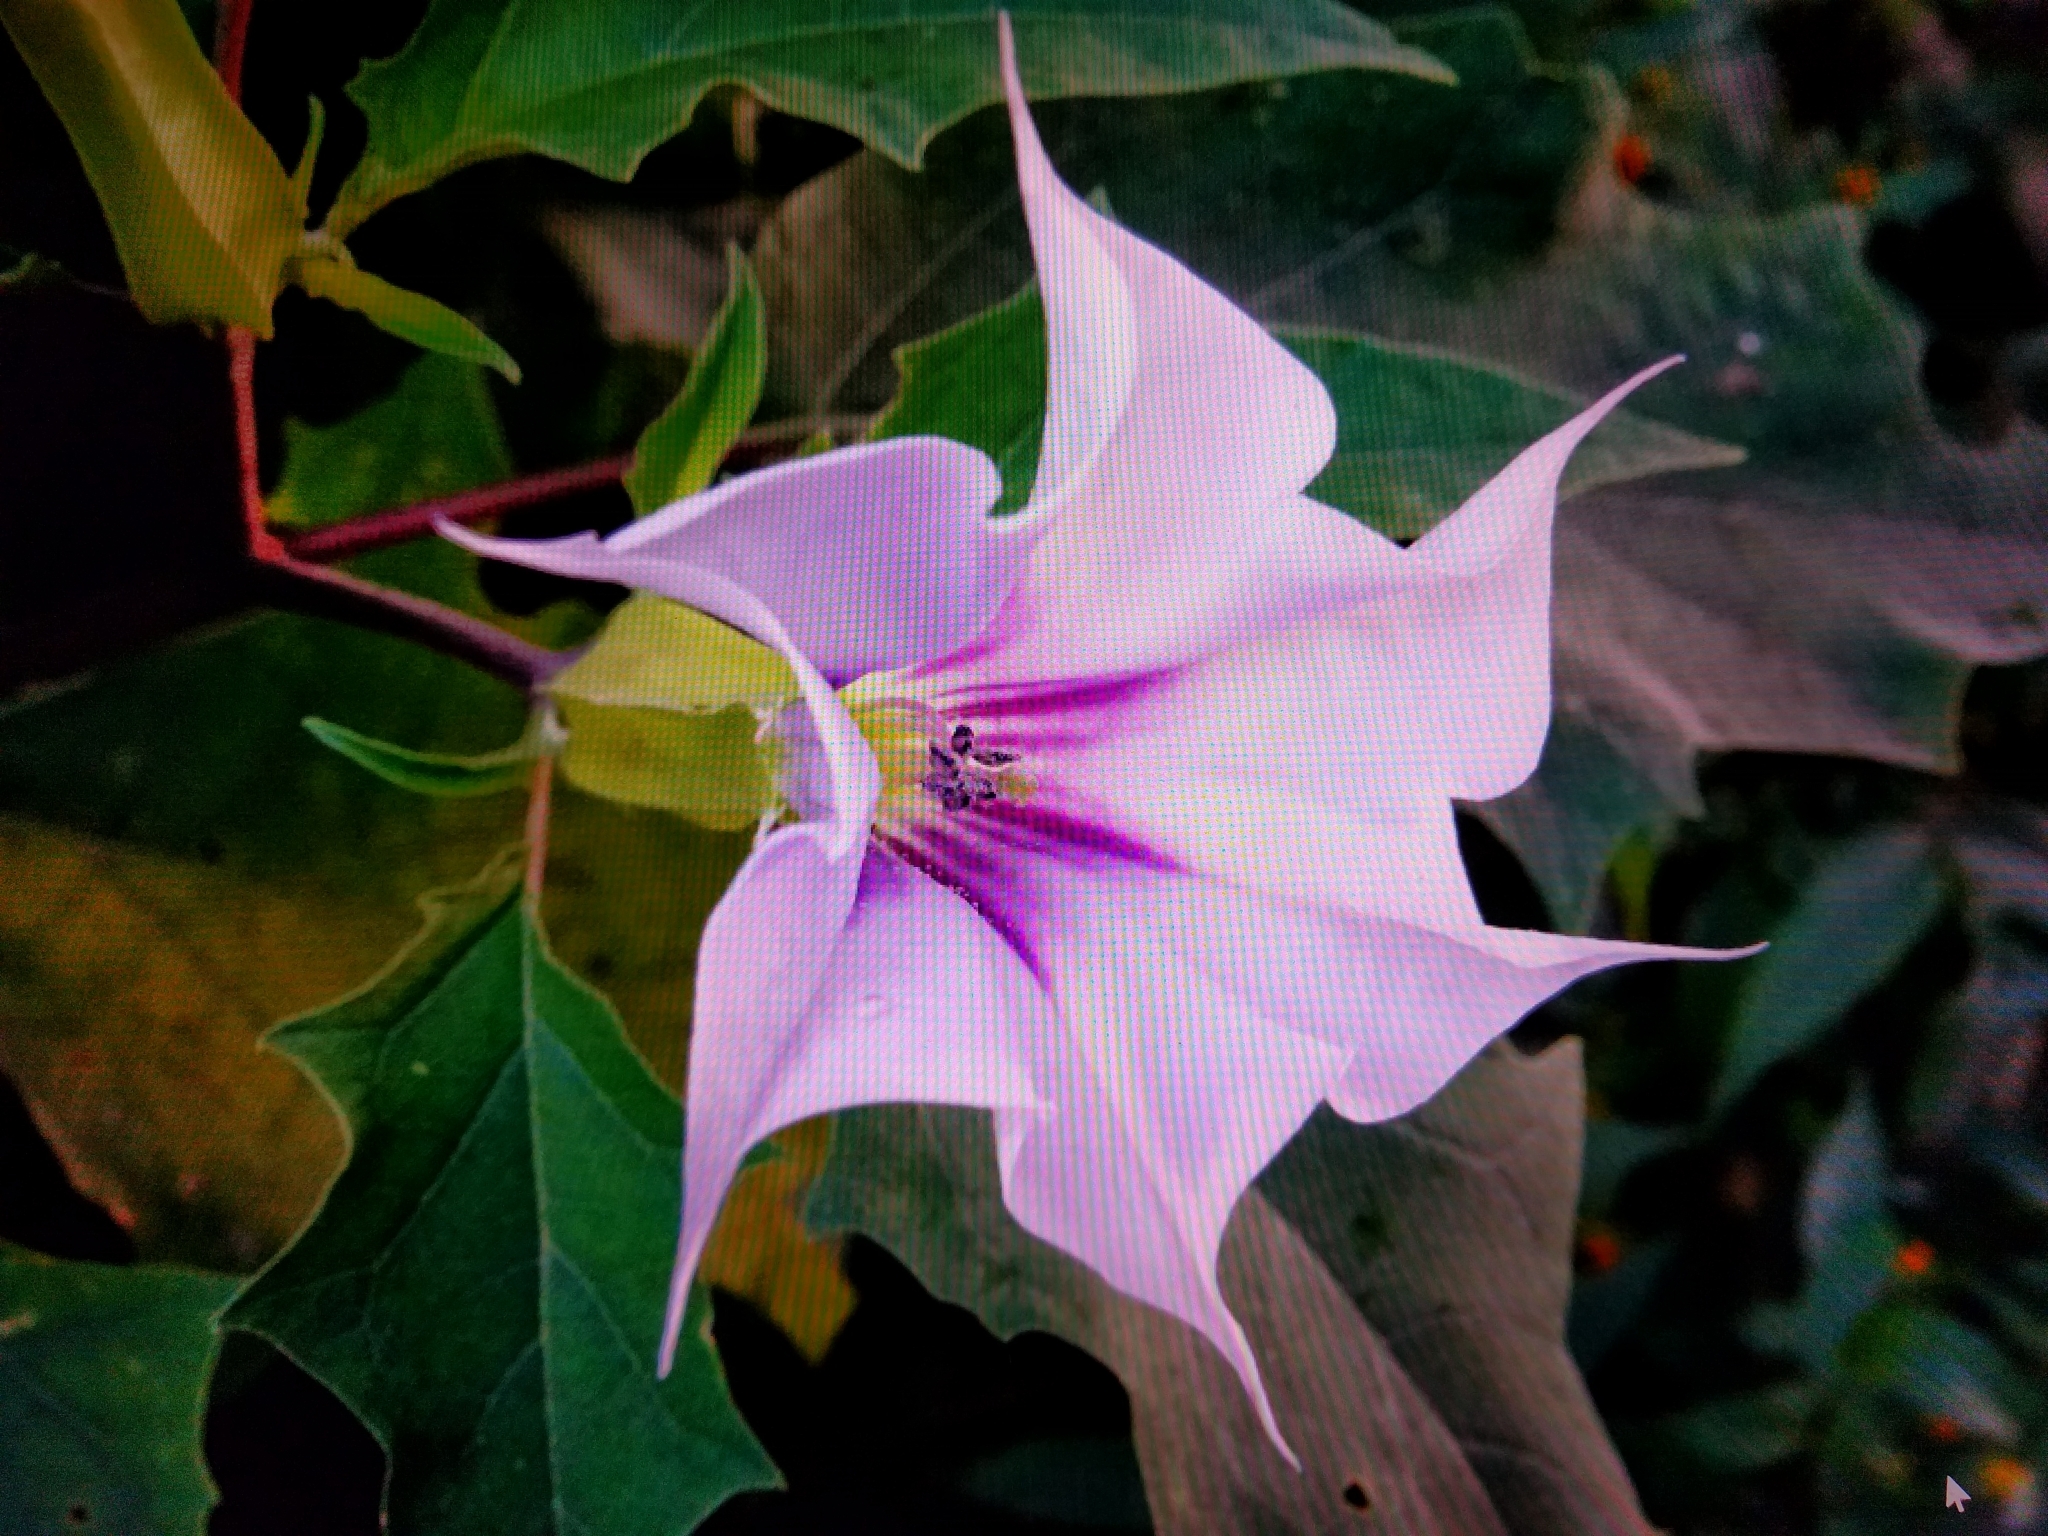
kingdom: Plantae
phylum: Tracheophyta
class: Magnoliopsida
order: Solanales
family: Solanaceae
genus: Datura
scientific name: Datura stramonium
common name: Thorn-apple
